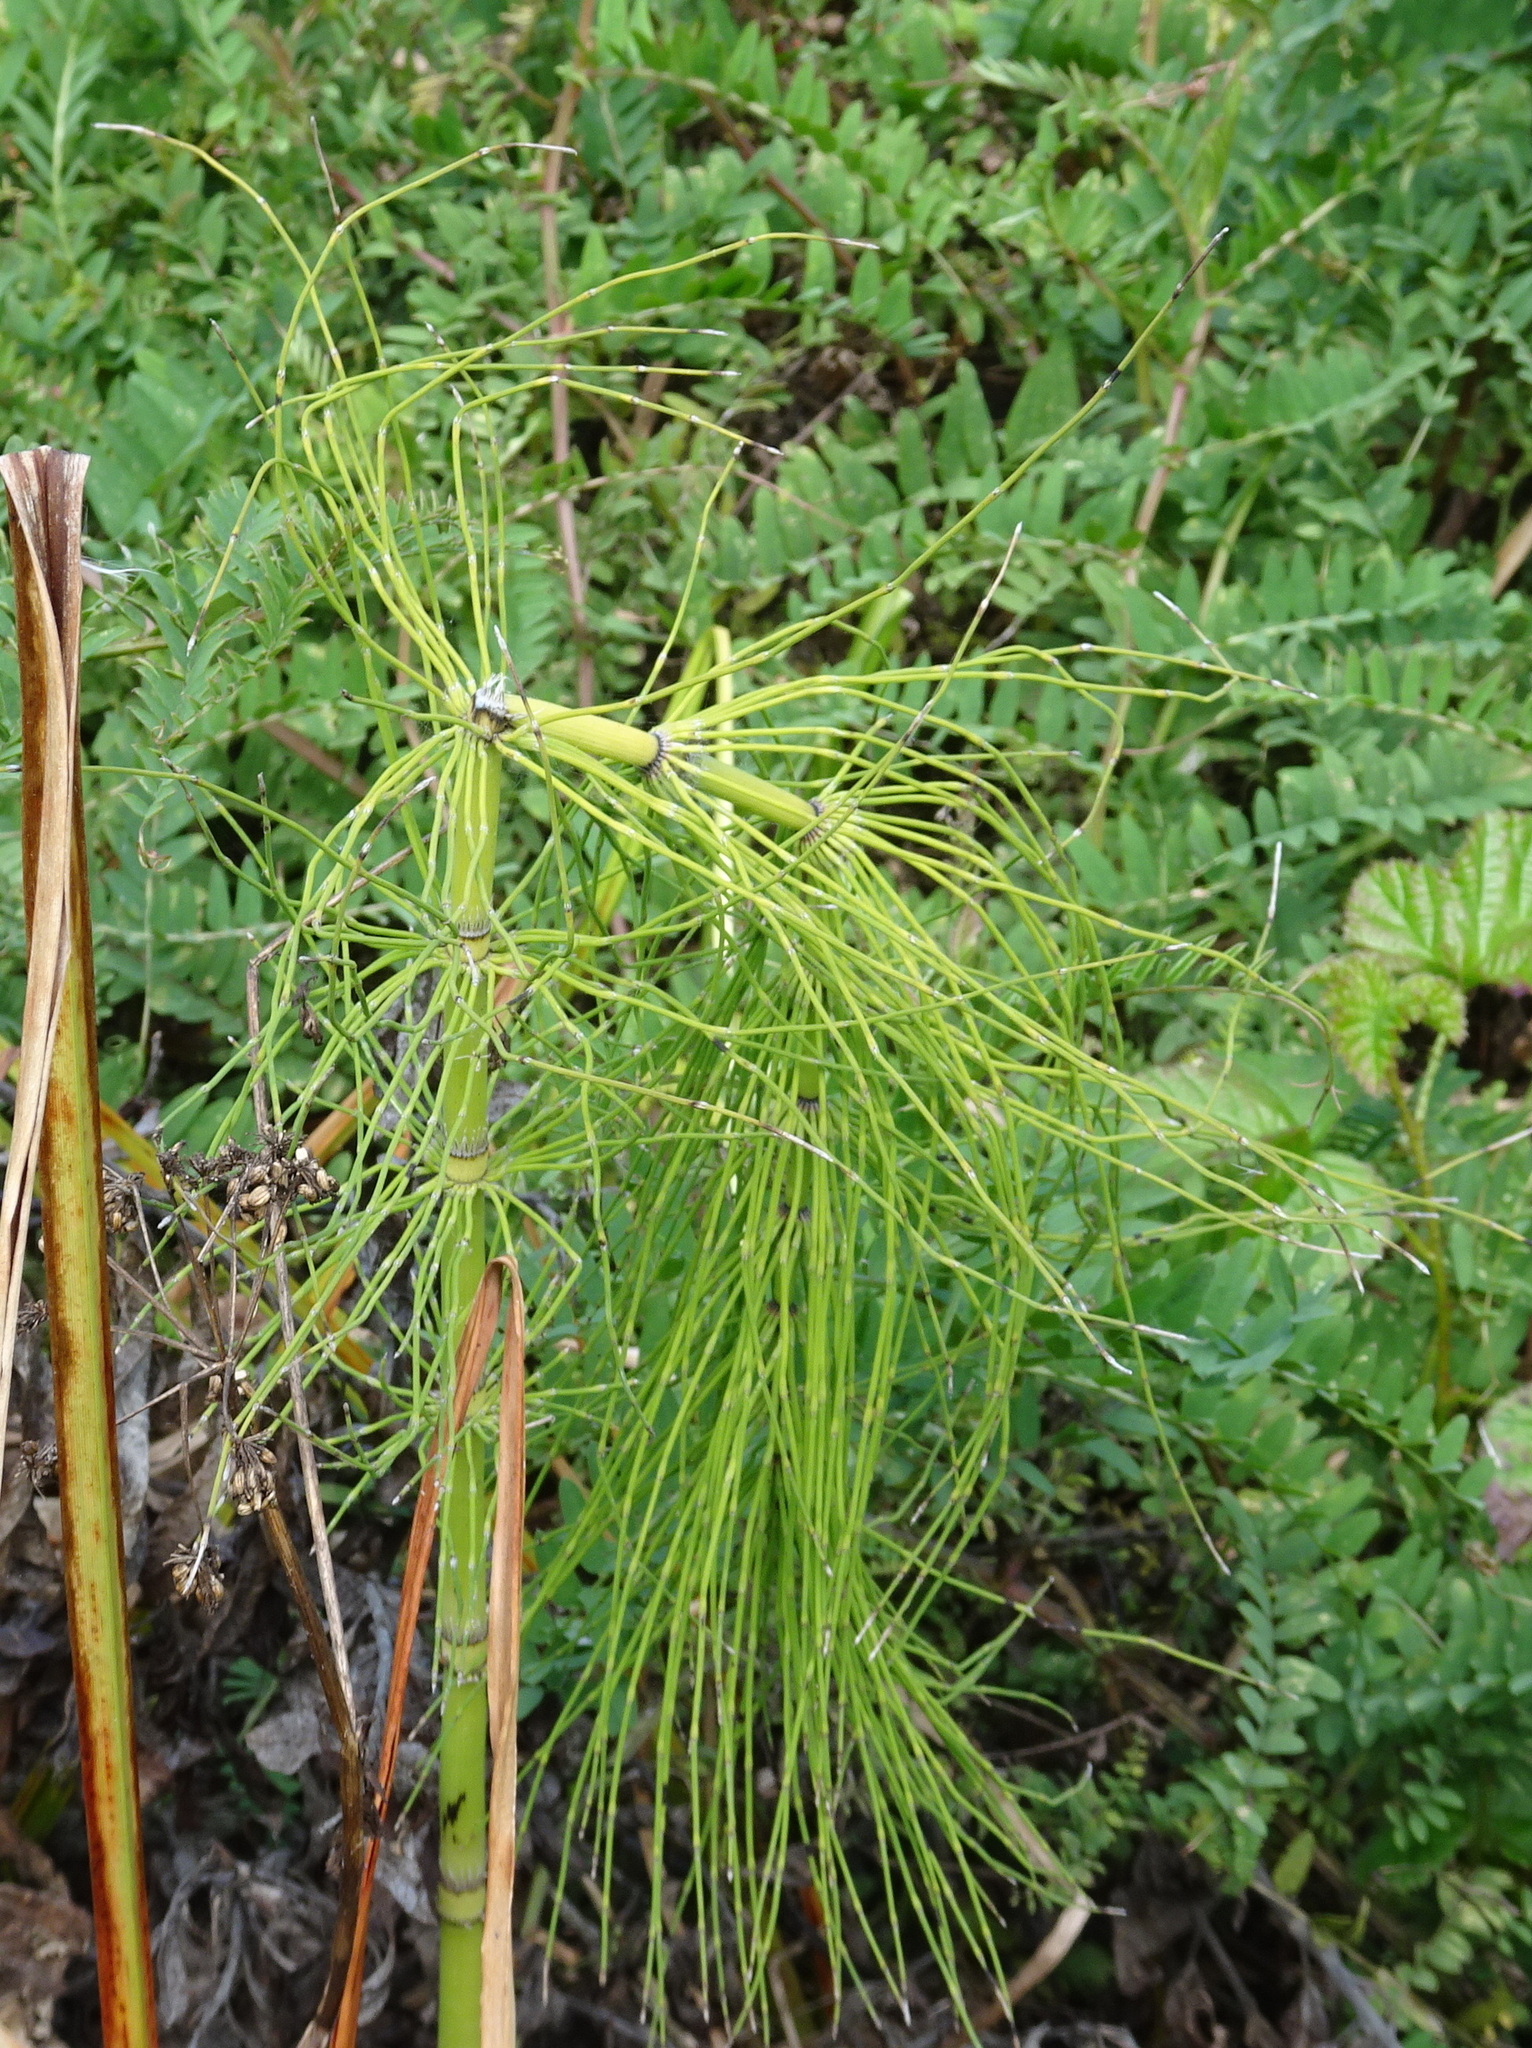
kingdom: Plantae
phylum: Tracheophyta
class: Polypodiopsida
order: Equisetales
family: Equisetaceae
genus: Equisetum
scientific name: Equisetum telmateia
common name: Great horsetail
